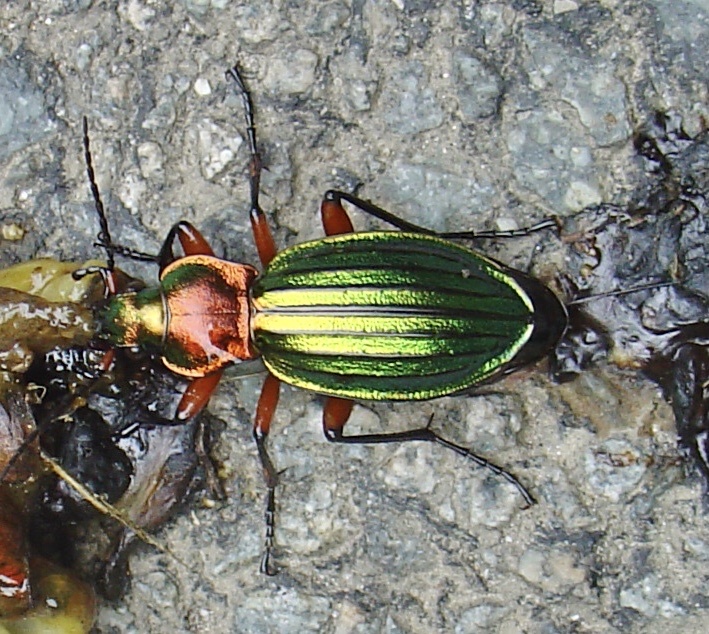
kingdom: Animalia
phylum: Arthropoda
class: Insecta
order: Coleoptera
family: Carabidae
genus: Carabus
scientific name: Carabus auronitens
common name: Carabus auronitens
